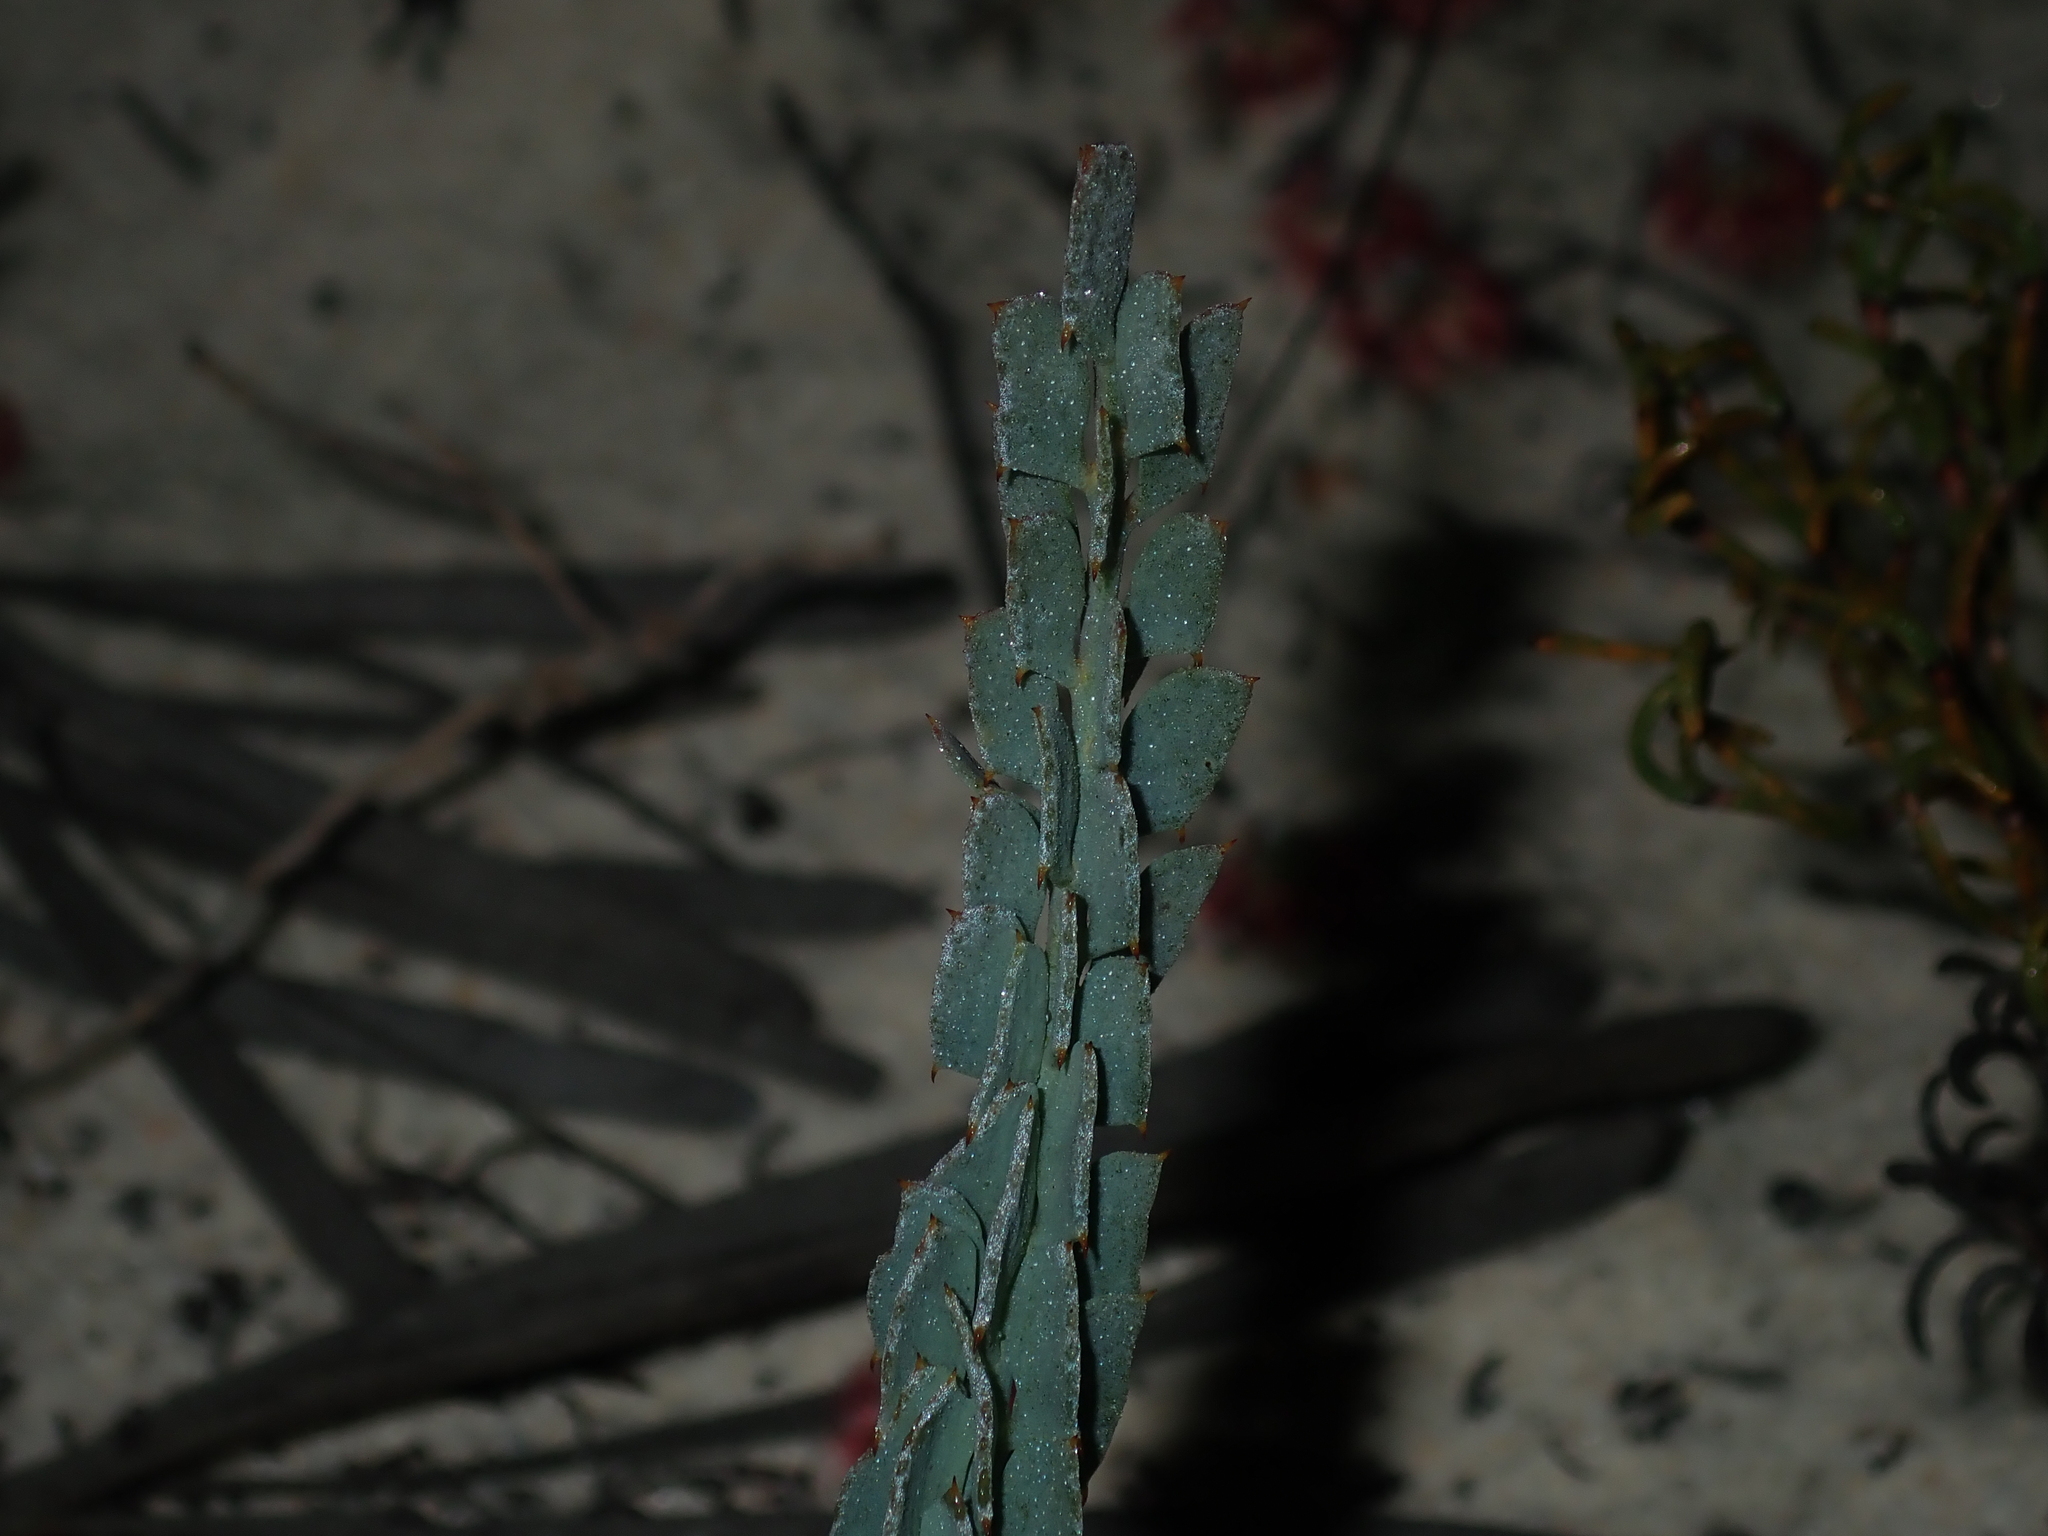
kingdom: Plantae
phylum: Tracheophyta
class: Magnoliopsida
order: Fabales
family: Fabaceae
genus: Daviesia
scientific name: Daviesia podophylla
